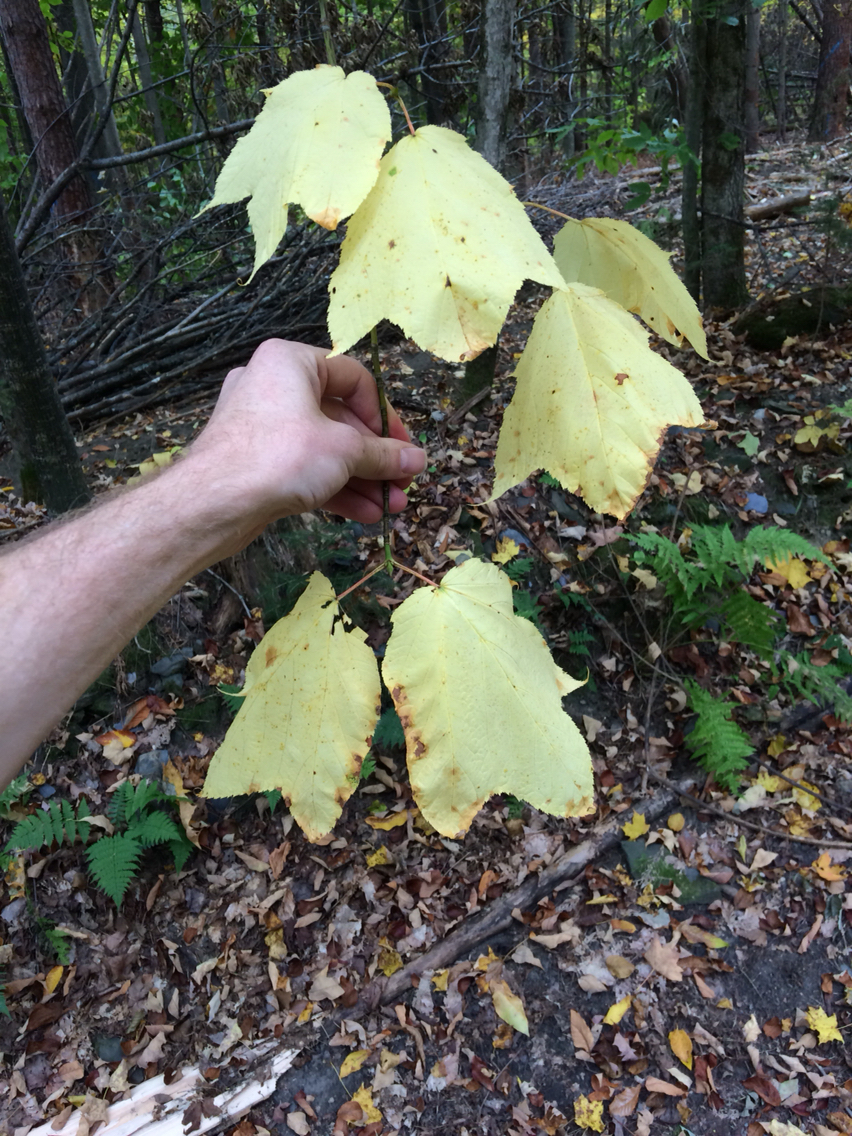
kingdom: Plantae
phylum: Tracheophyta
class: Magnoliopsida
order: Sapindales
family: Sapindaceae
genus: Acer
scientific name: Acer pensylvanicum
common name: Moosewood
